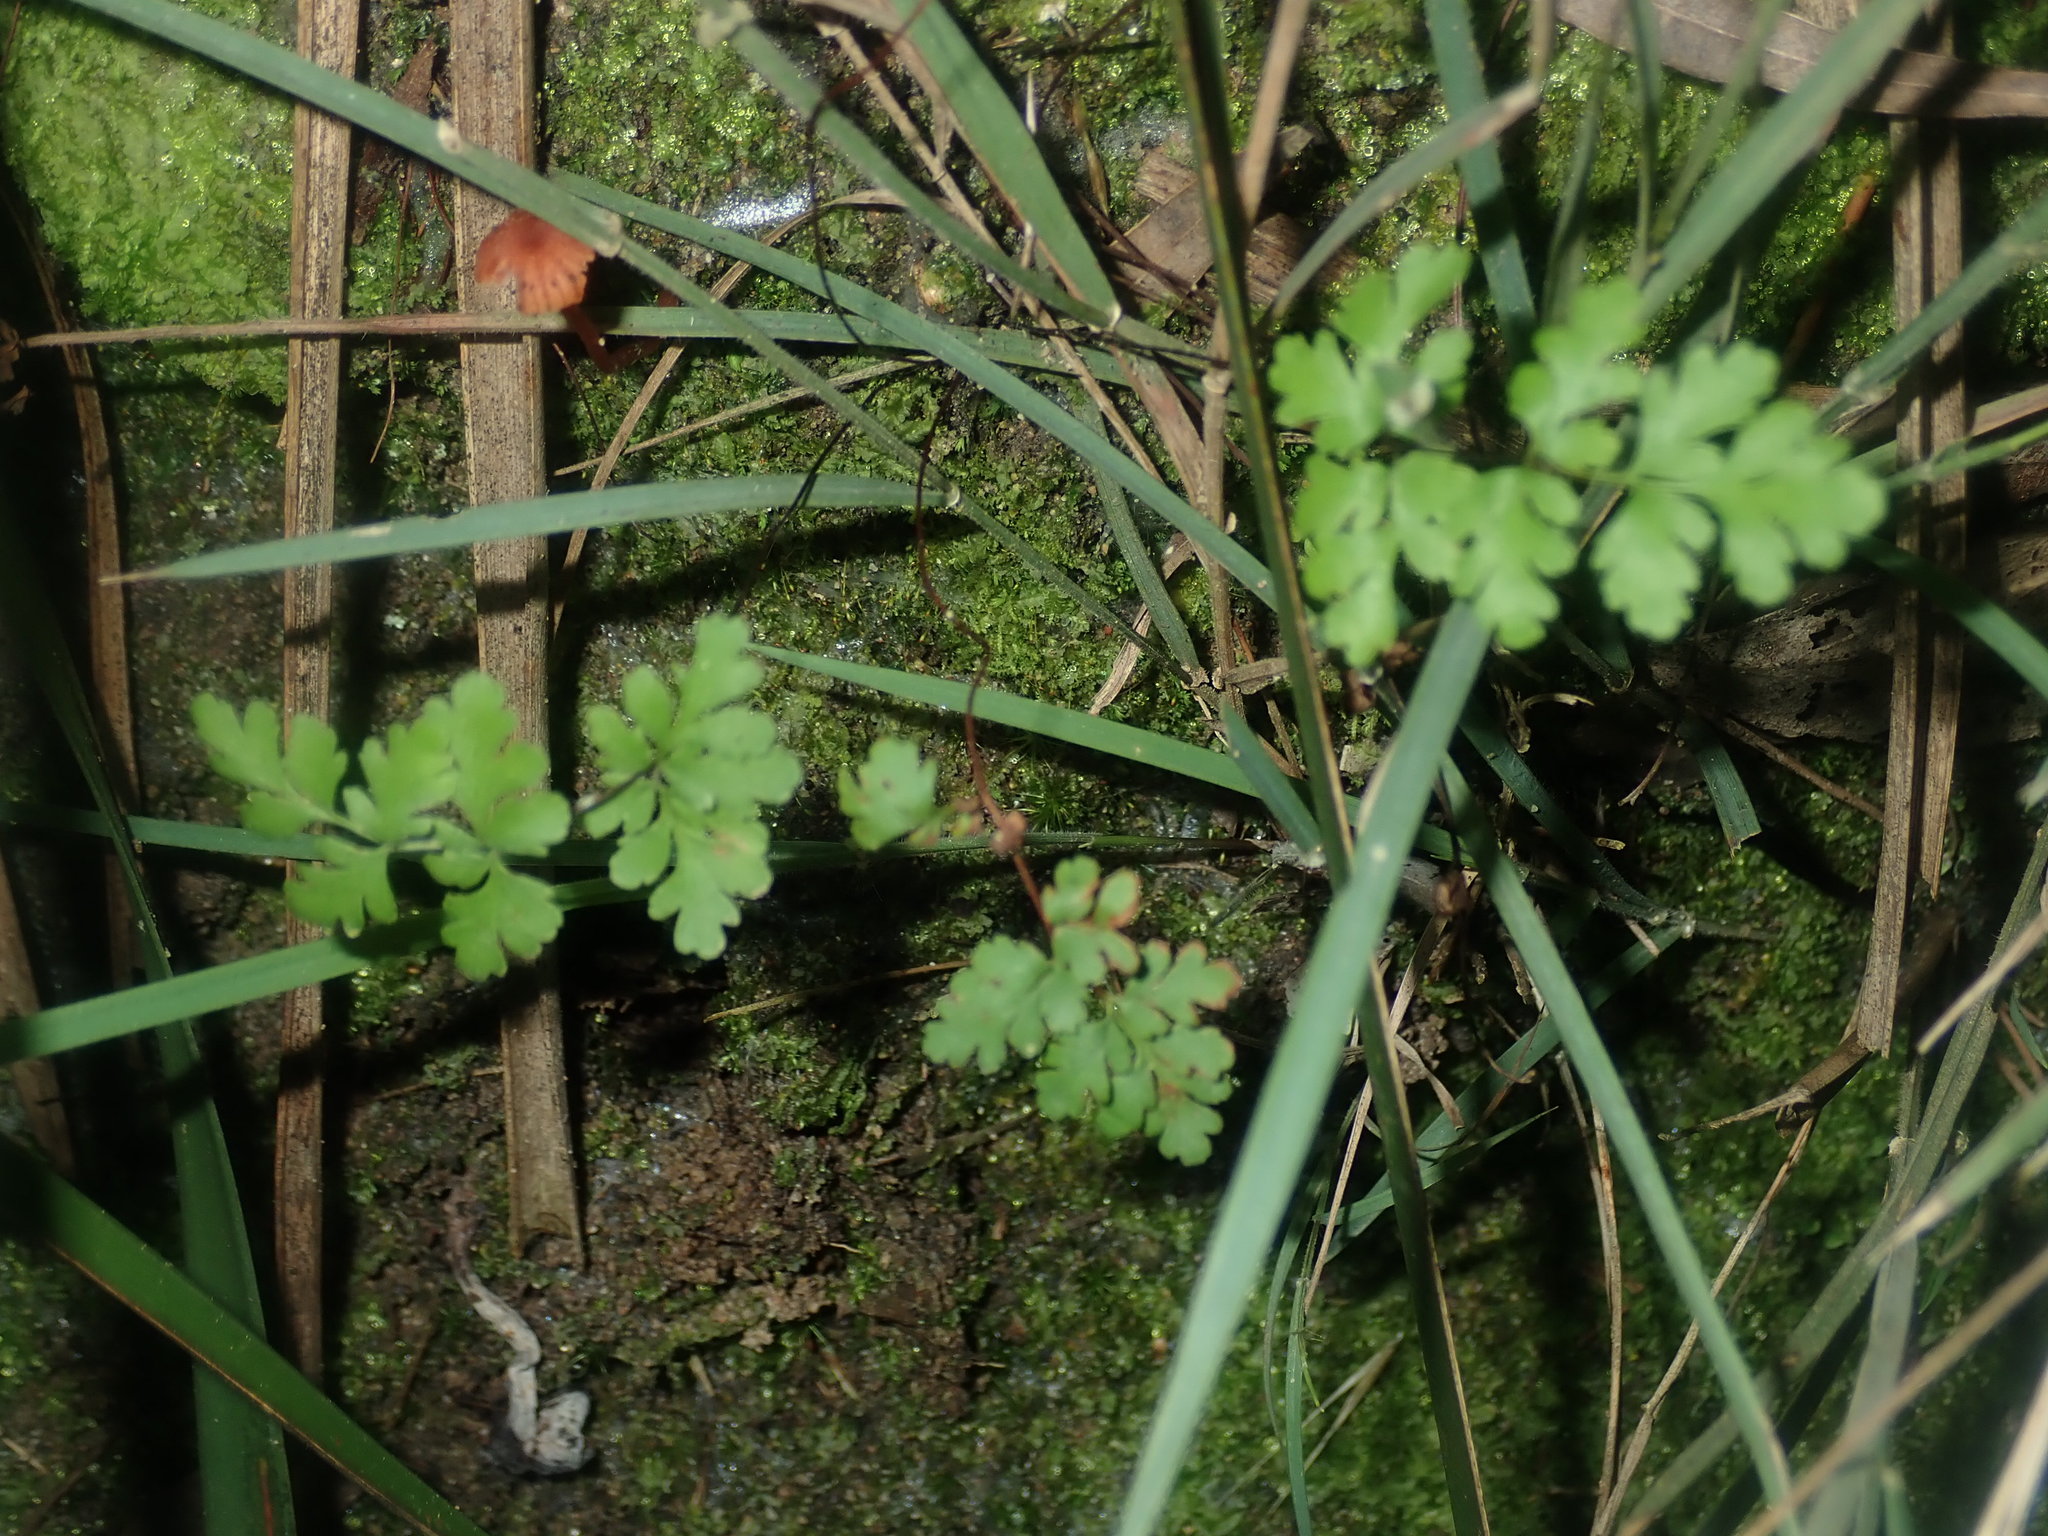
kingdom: Plantae
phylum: Tracheophyta
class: Polypodiopsida
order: Polypodiales
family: Pteridaceae
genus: Cheilanthes
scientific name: Cheilanthes sieberi
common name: Mulga fern
